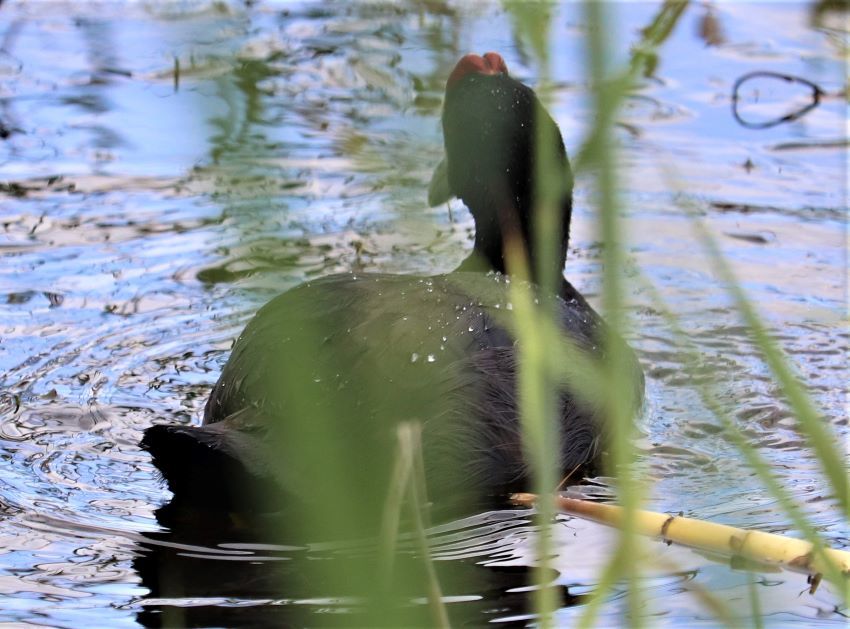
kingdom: Animalia
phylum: Chordata
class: Aves
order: Gruiformes
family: Rallidae
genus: Fulica
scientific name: Fulica cristata
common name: Red-knobbed coot
